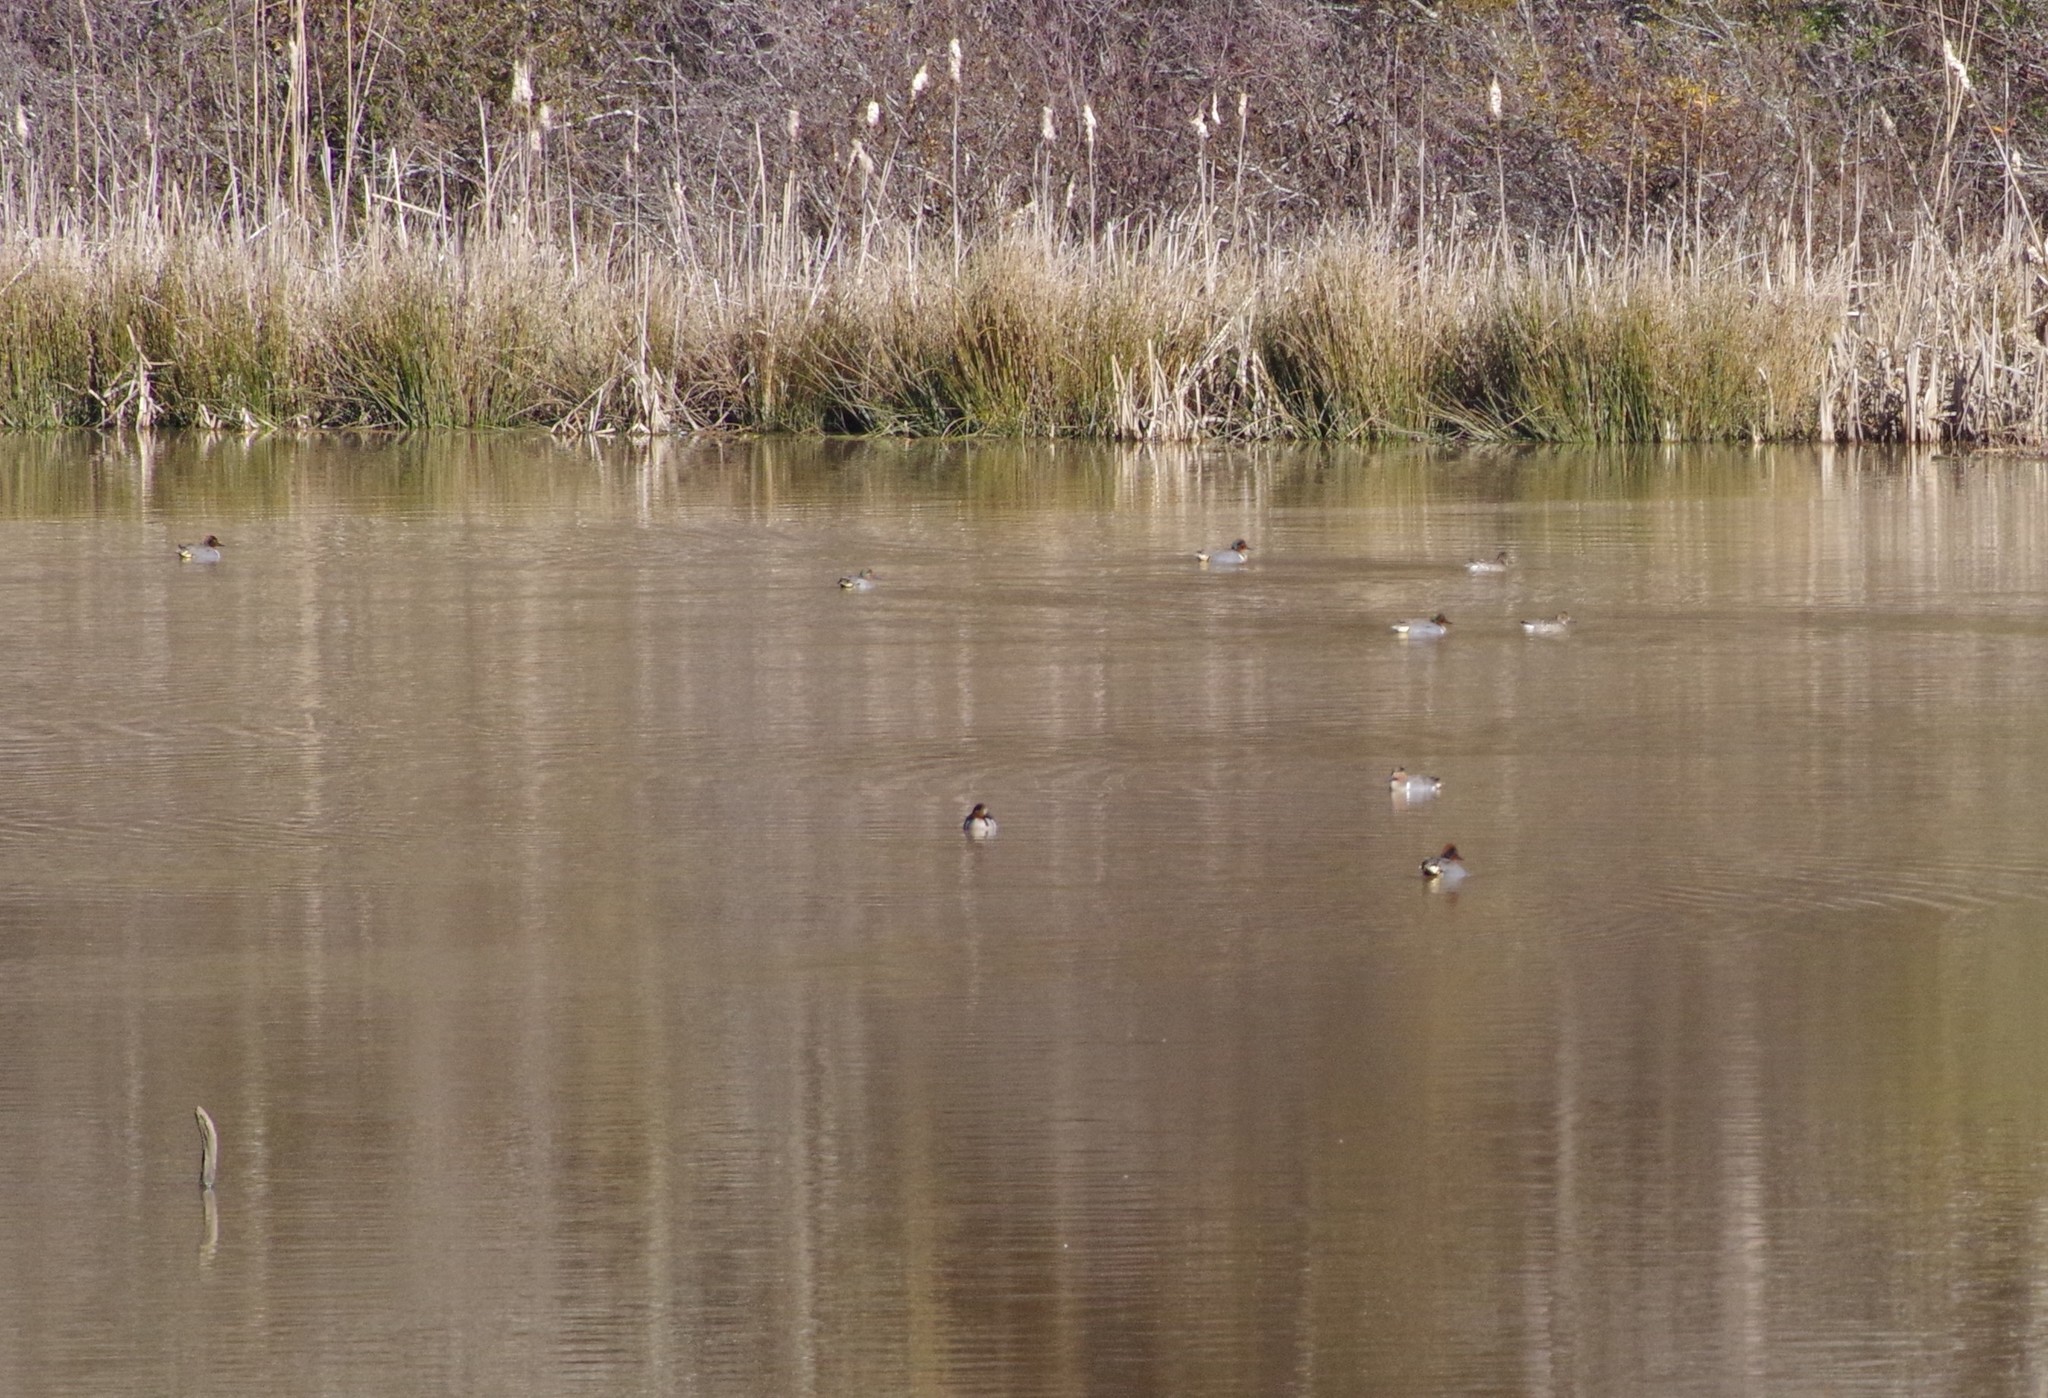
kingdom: Animalia
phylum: Chordata
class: Aves
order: Anseriformes
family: Anatidae
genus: Anas
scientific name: Anas carolinensis
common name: Green-winged teal
